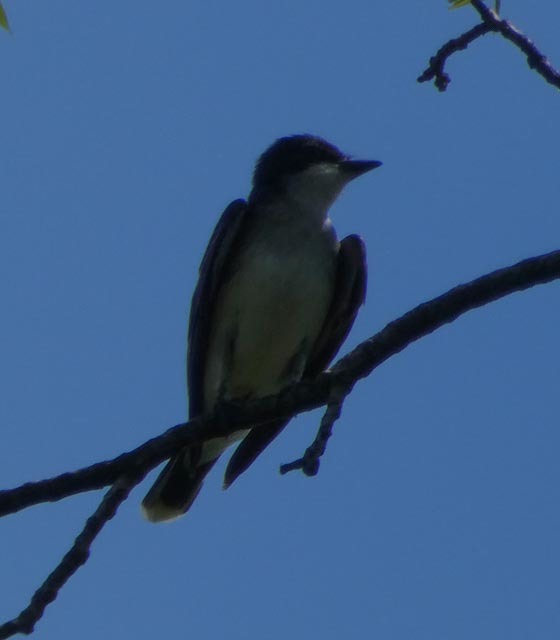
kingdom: Animalia
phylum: Chordata
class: Aves
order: Passeriformes
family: Tyrannidae
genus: Tyrannus
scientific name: Tyrannus tyrannus
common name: Eastern kingbird
